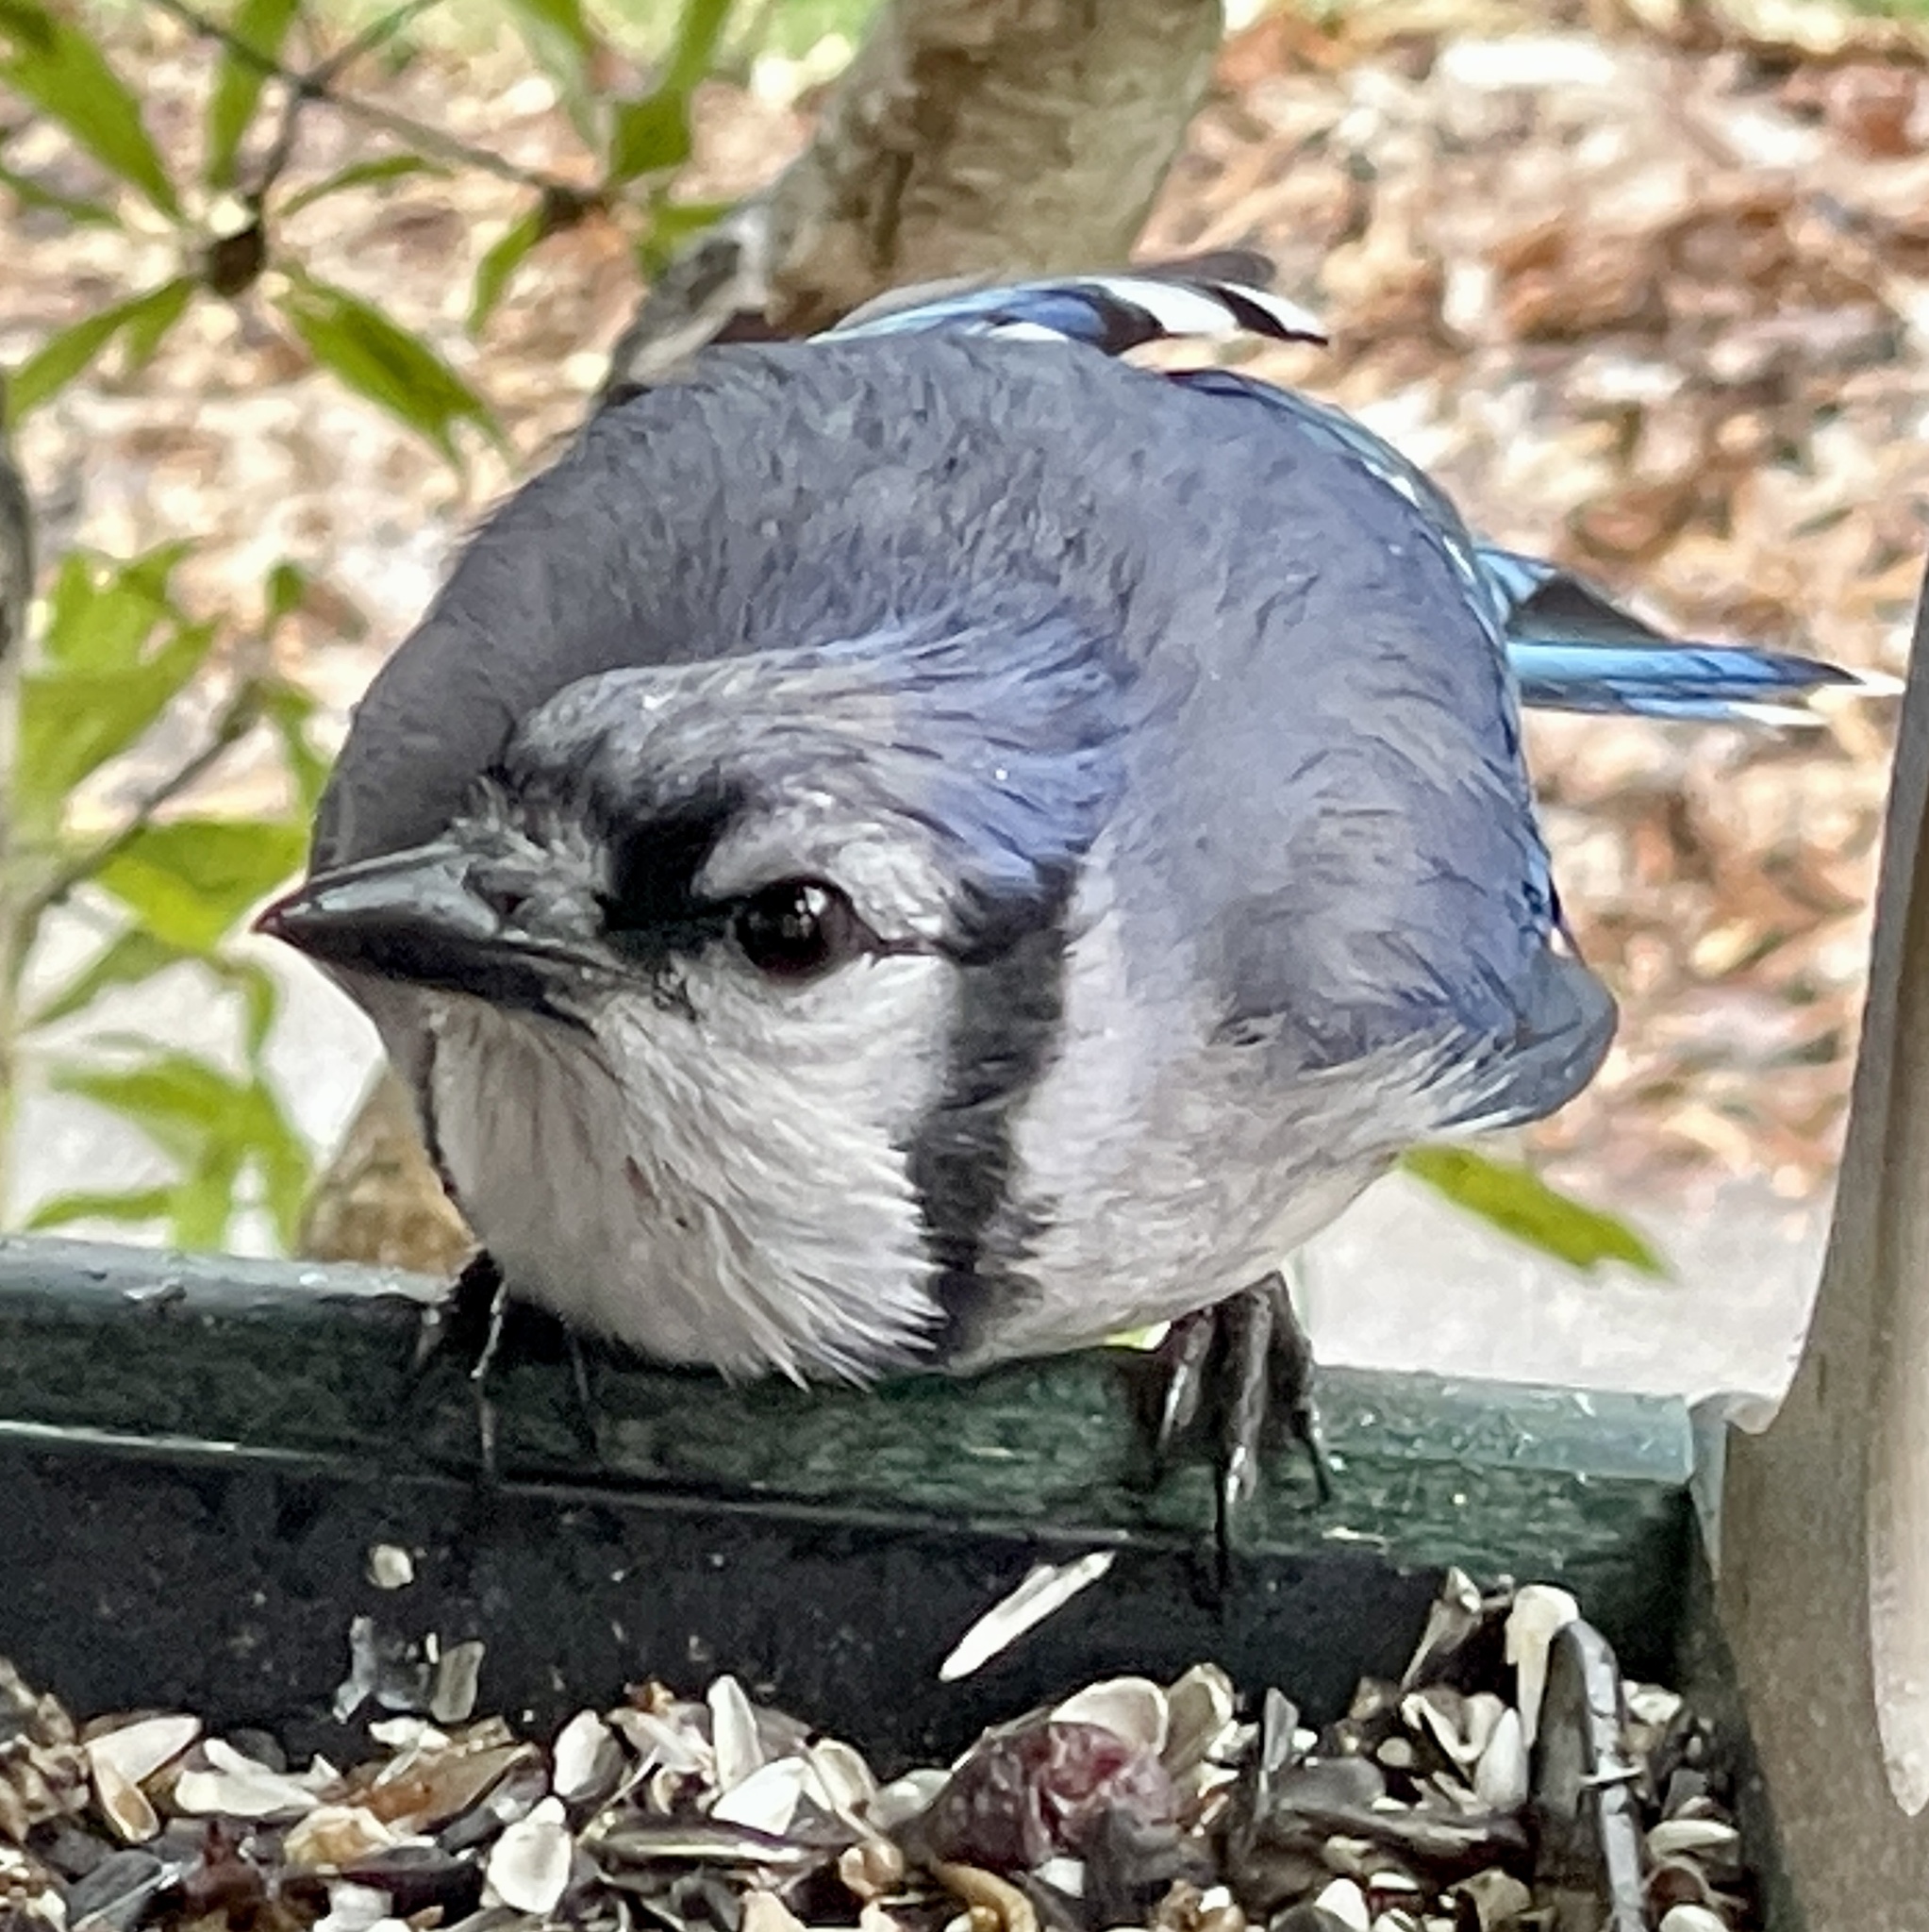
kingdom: Animalia
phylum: Chordata
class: Aves
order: Passeriformes
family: Corvidae
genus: Cyanocitta
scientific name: Cyanocitta cristata
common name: Blue jay
